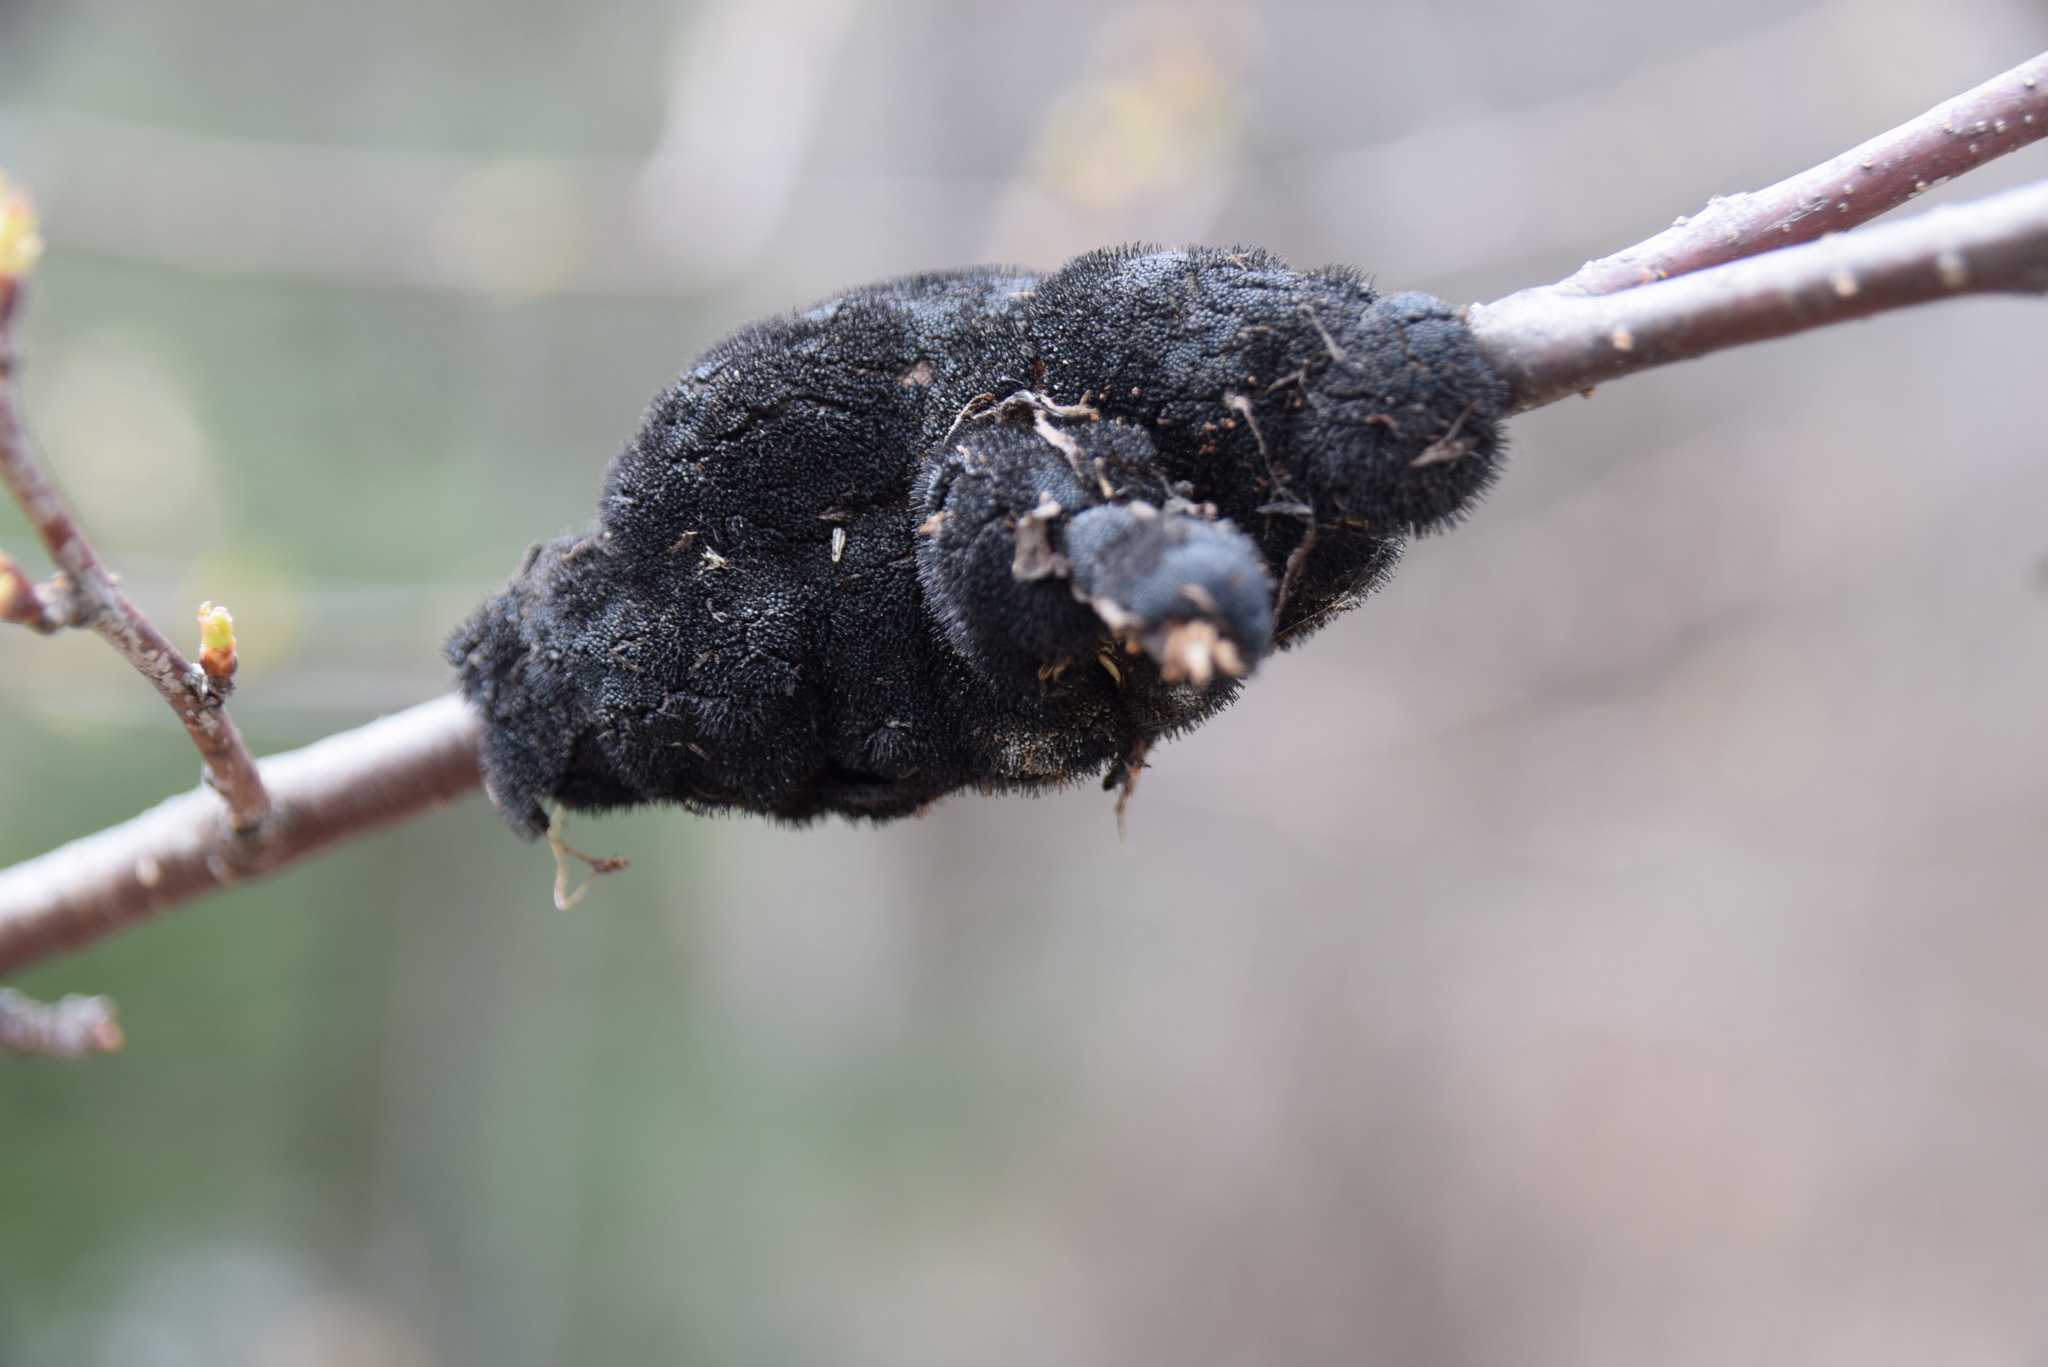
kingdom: Fungi
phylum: Ascomycota
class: Dothideomycetes
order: Venturiales
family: Venturiaceae
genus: Apiosporina
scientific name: Apiosporina morbosa
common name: Black knot
